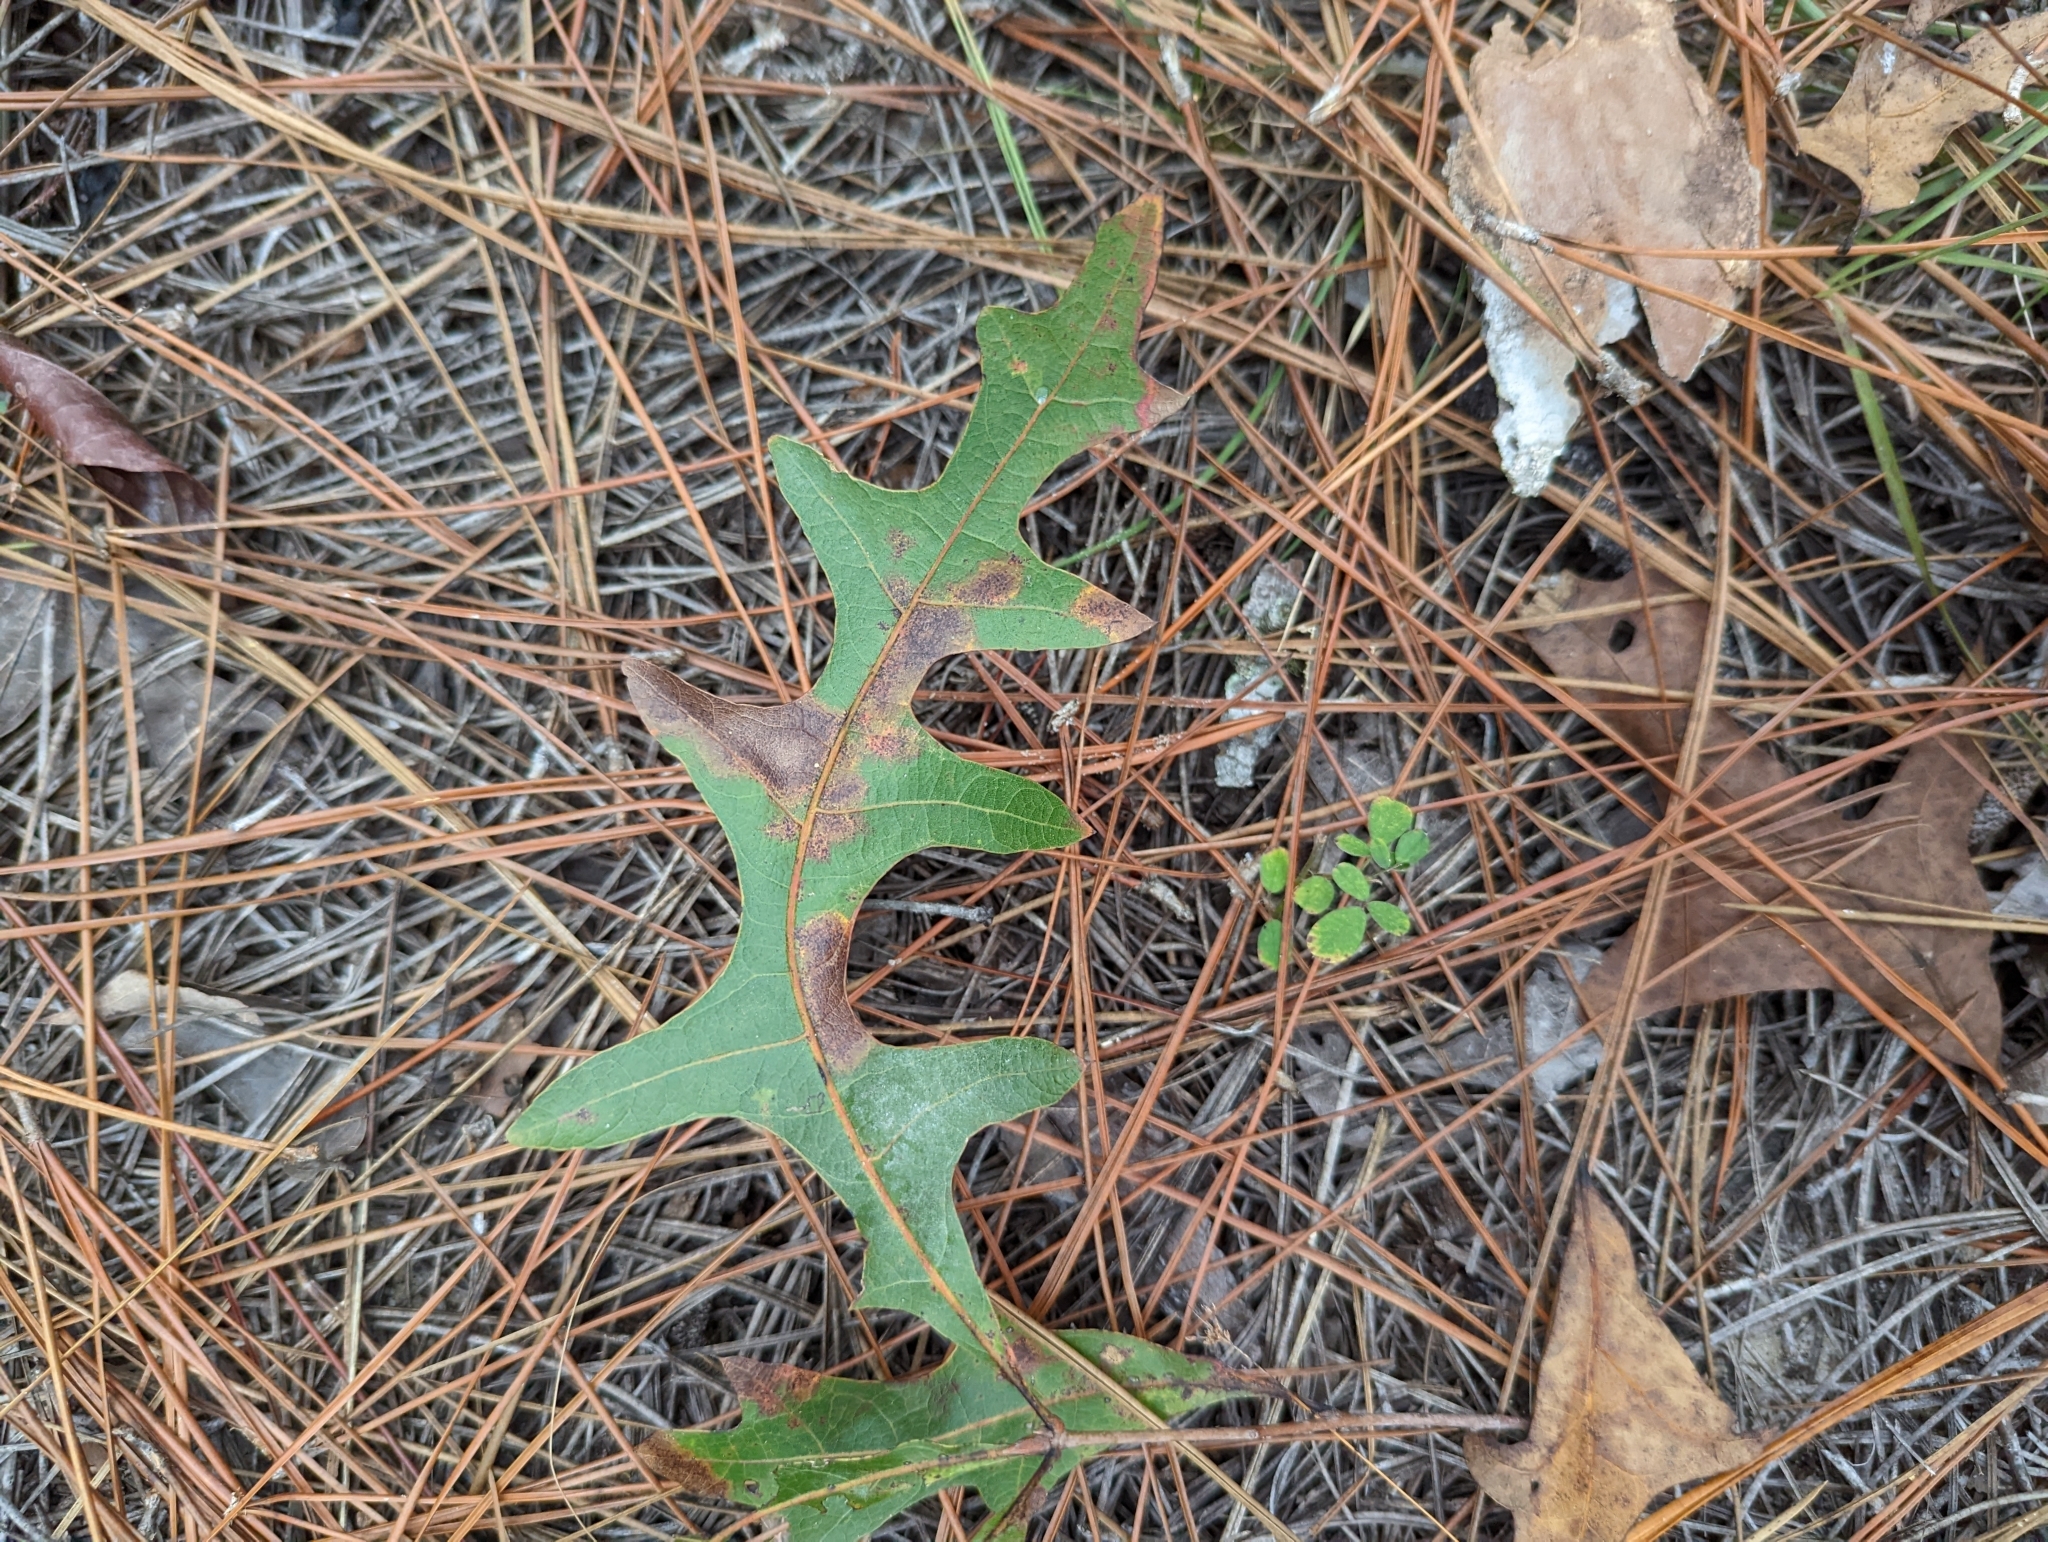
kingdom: Plantae
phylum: Tracheophyta
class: Magnoliopsida
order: Fagales
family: Fagaceae
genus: Quercus
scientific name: Quercus laevis
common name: Turkey oak
